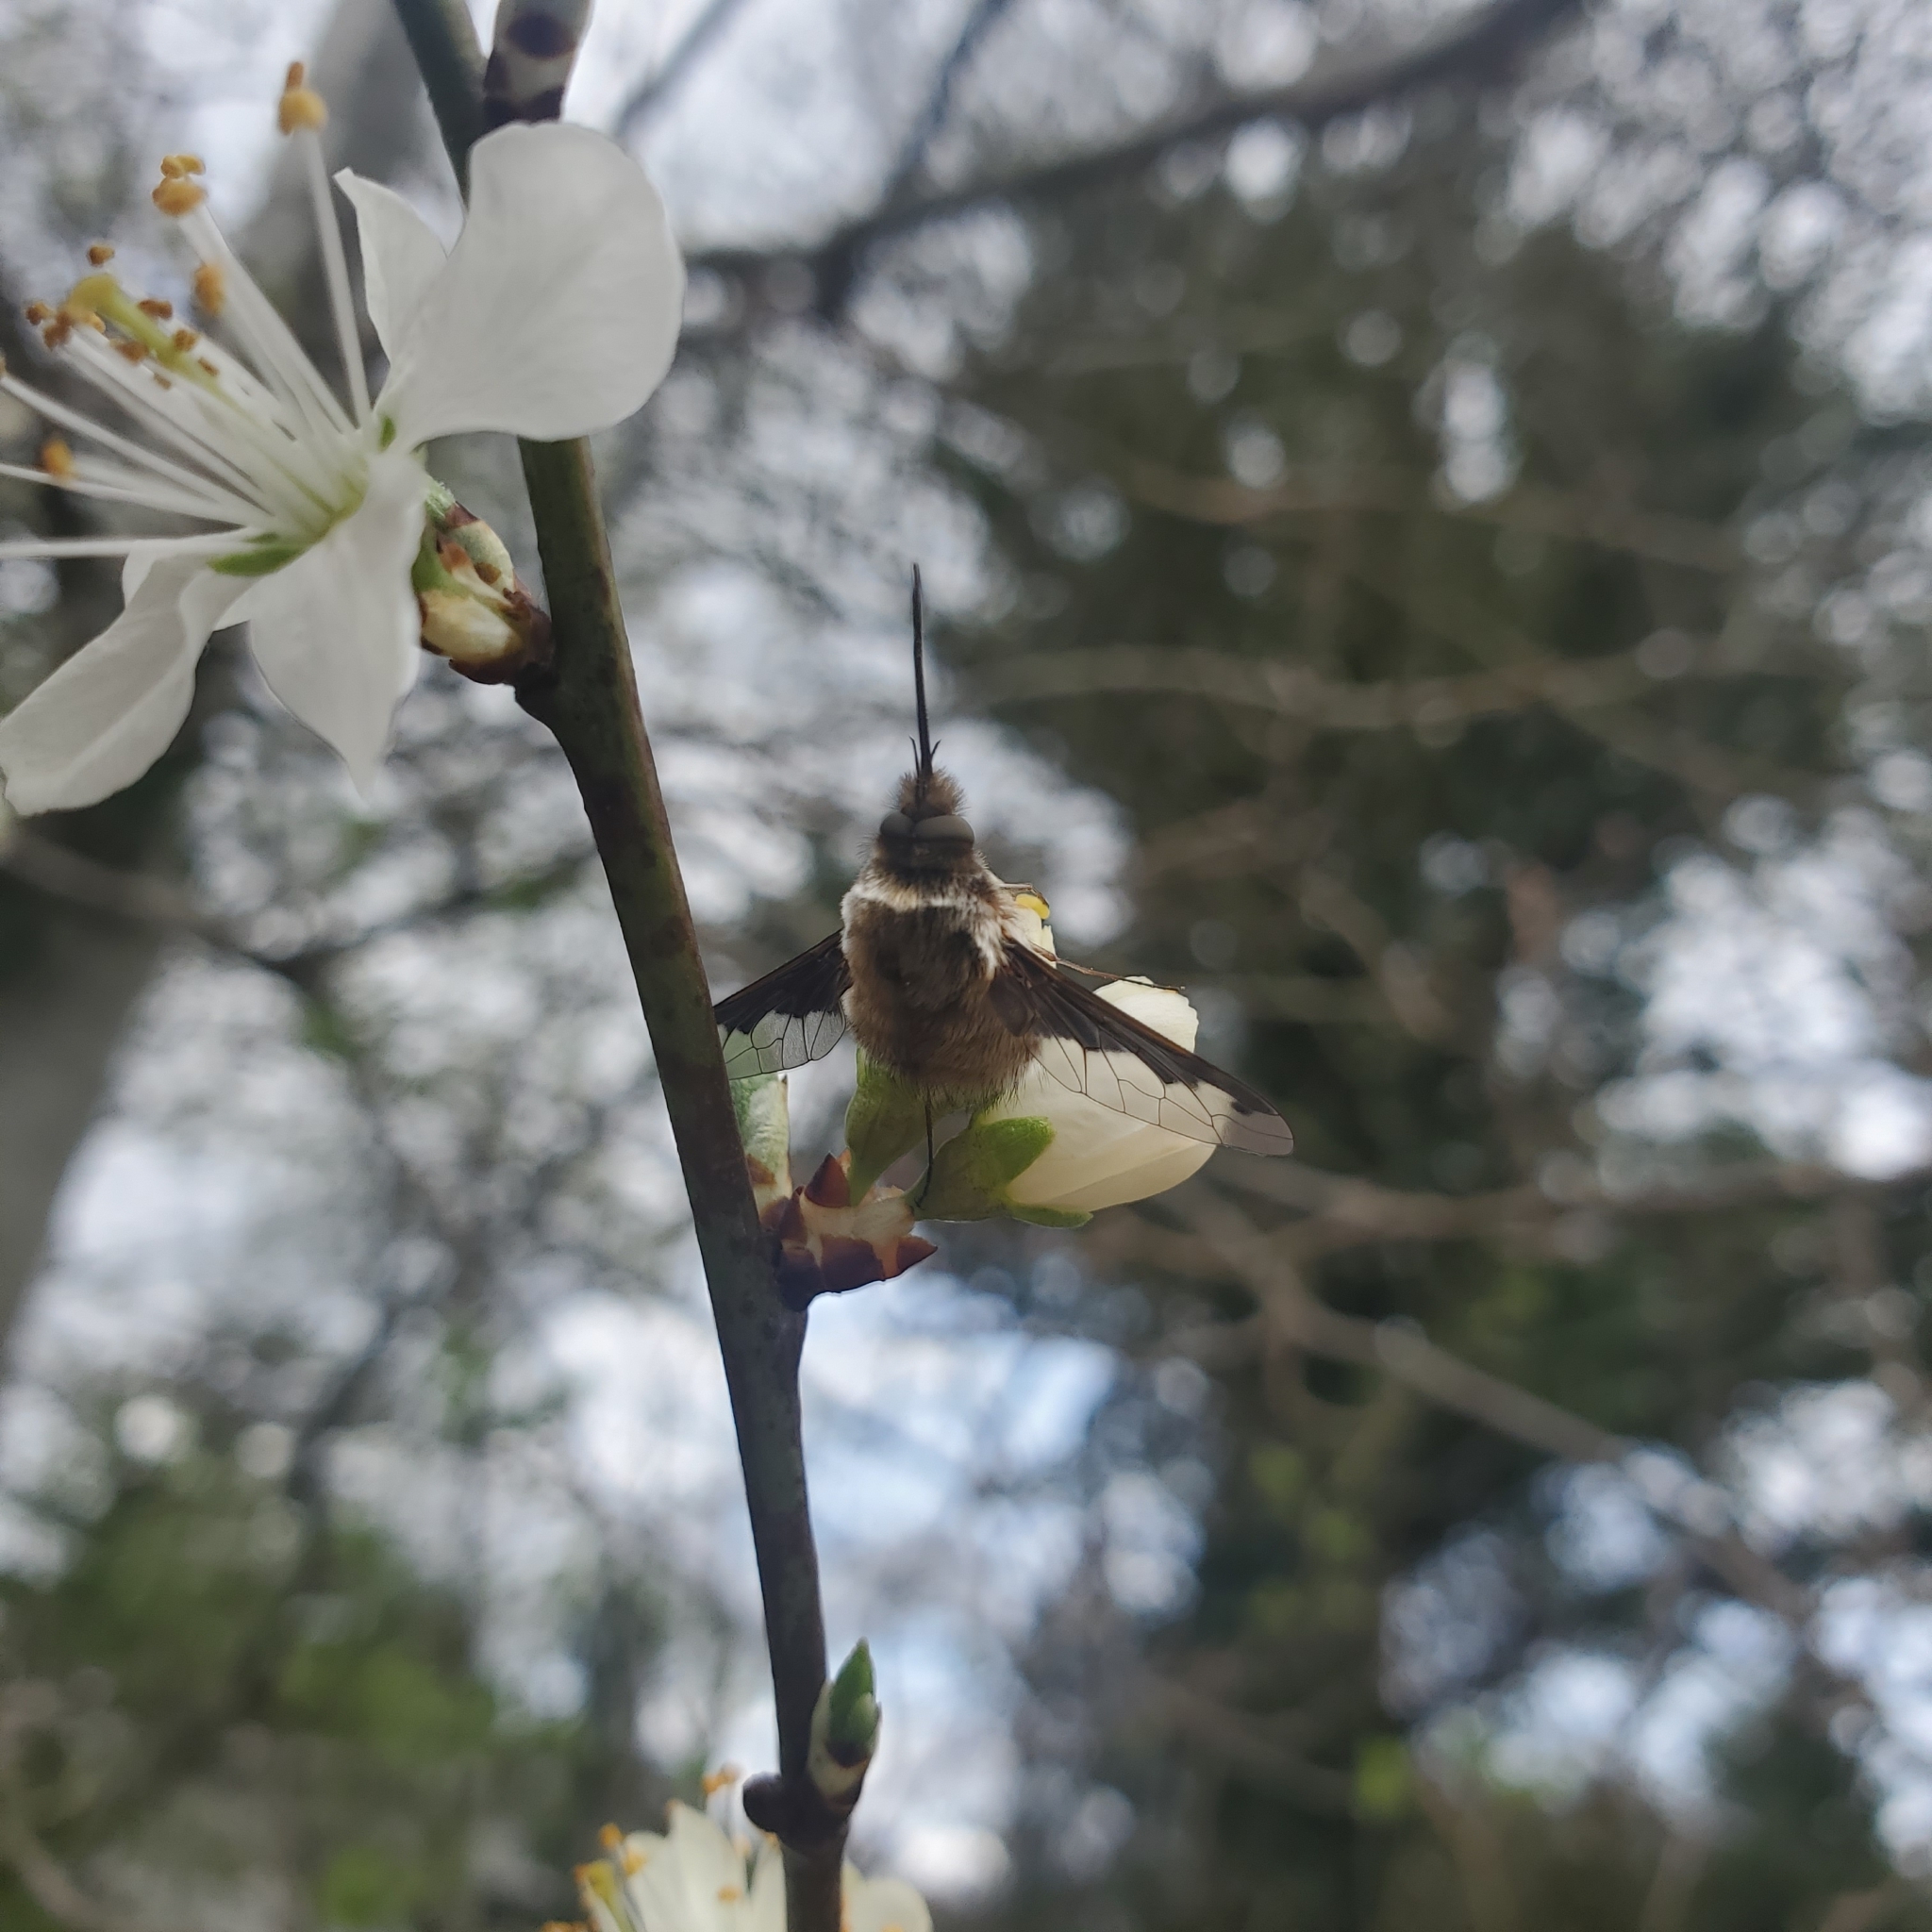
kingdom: Animalia
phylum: Arthropoda
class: Insecta
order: Diptera
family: Bombyliidae
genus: Bombylius
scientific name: Bombylius major
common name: Bee fly
